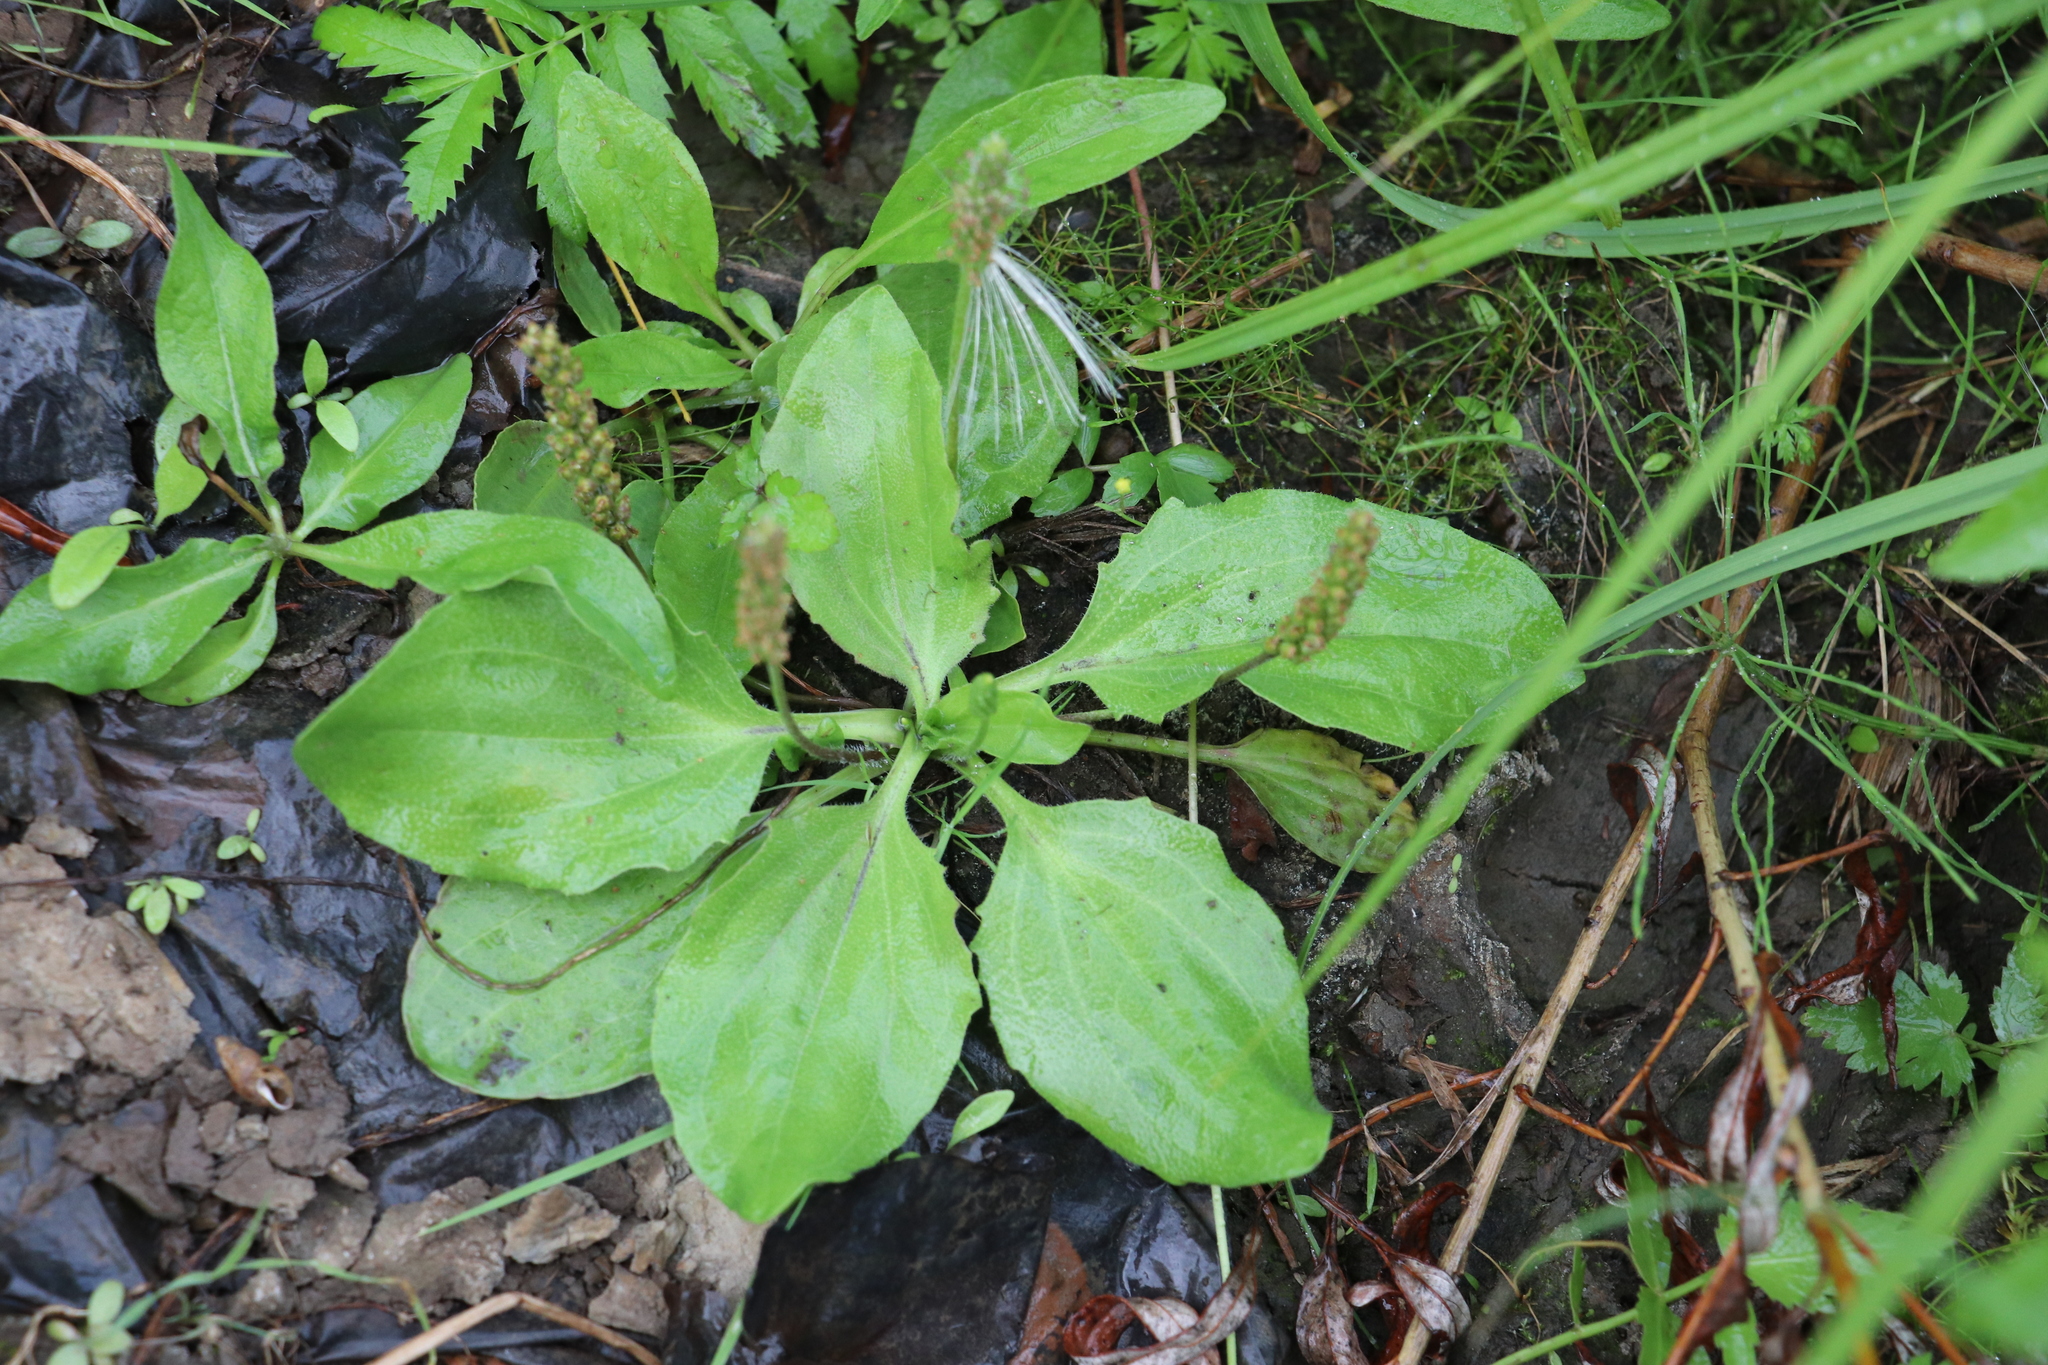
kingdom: Plantae
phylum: Tracheophyta
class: Magnoliopsida
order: Lamiales
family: Plantaginaceae
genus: Plantago
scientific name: Plantago major
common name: Common plantain
